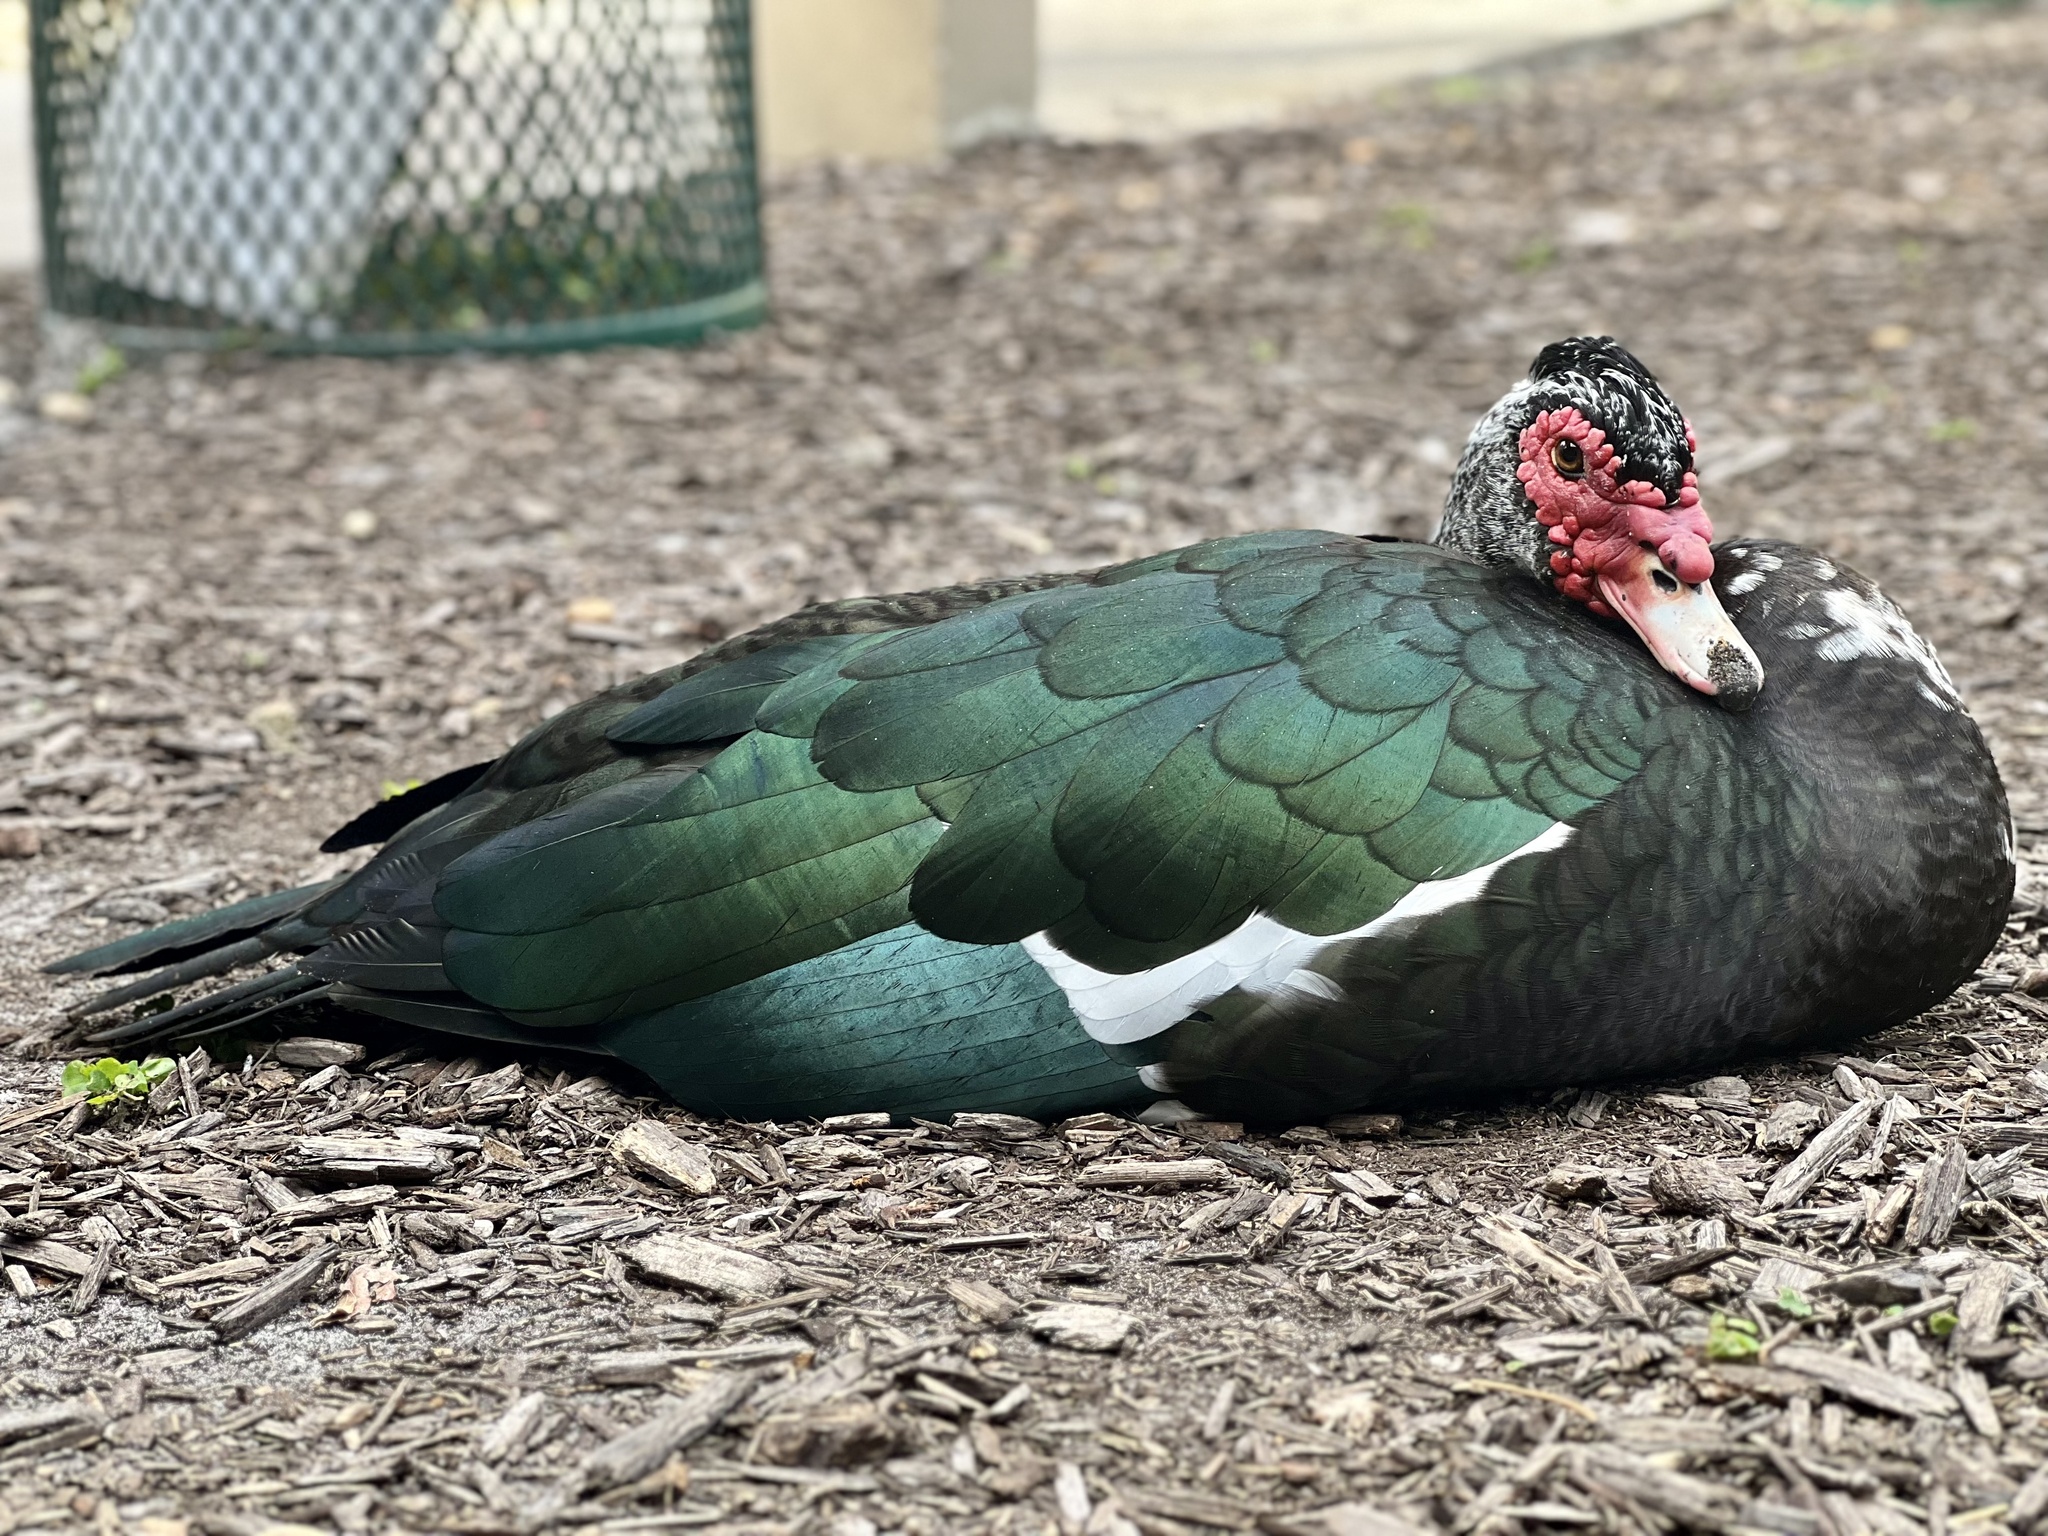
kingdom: Animalia
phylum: Chordata
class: Aves
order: Anseriformes
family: Anatidae
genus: Cairina
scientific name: Cairina moschata
